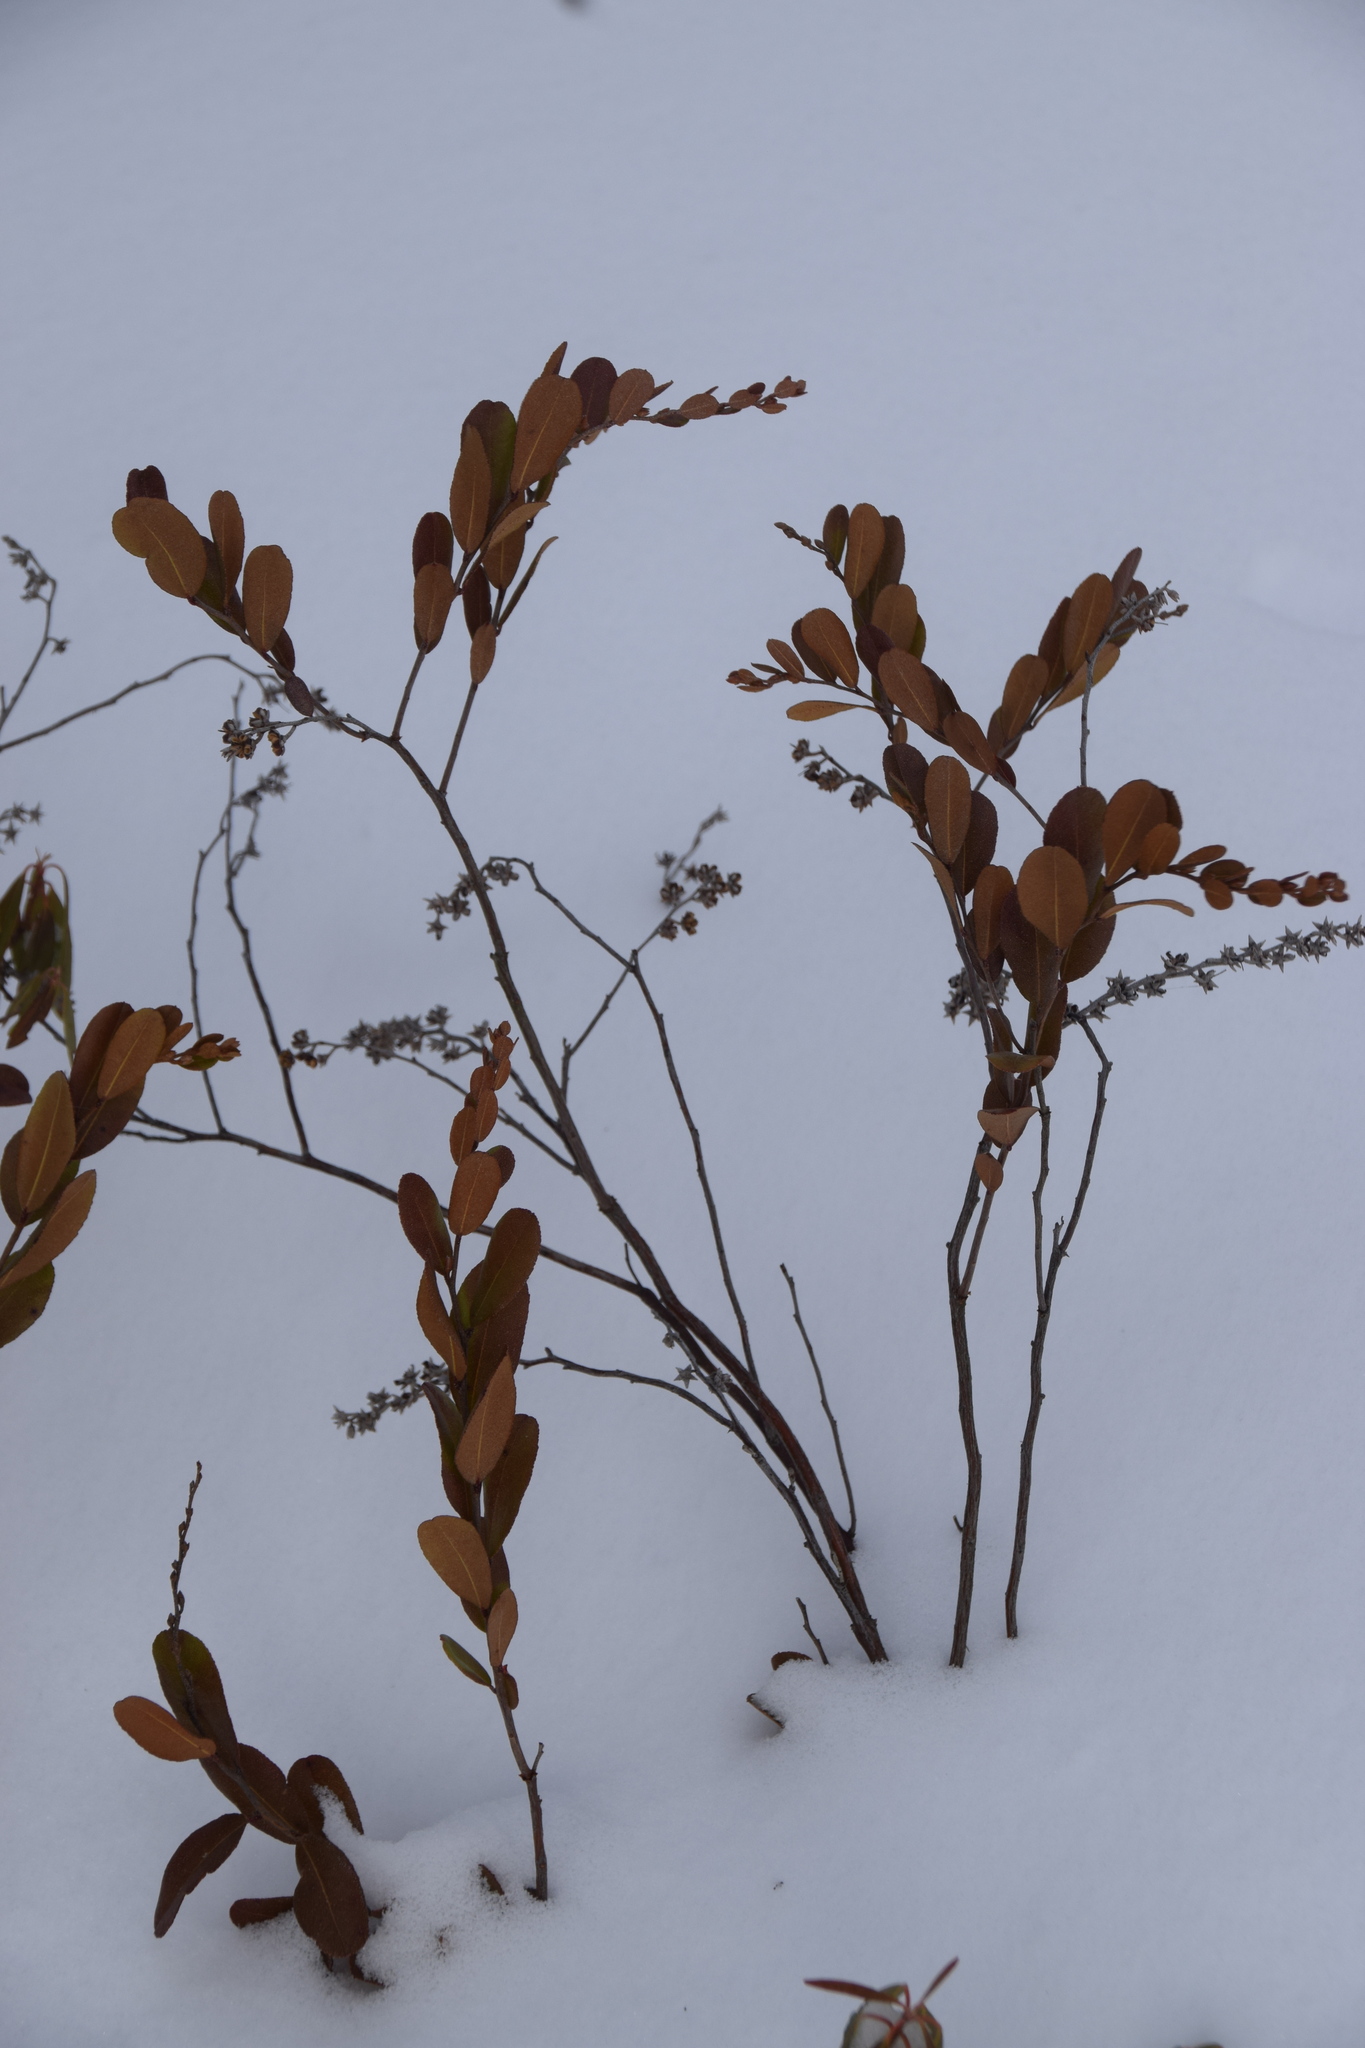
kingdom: Plantae
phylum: Tracheophyta
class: Magnoliopsida
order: Ericales
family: Ericaceae
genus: Chamaedaphne
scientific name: Chamaedaphne calyculata
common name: Leatherleaf
